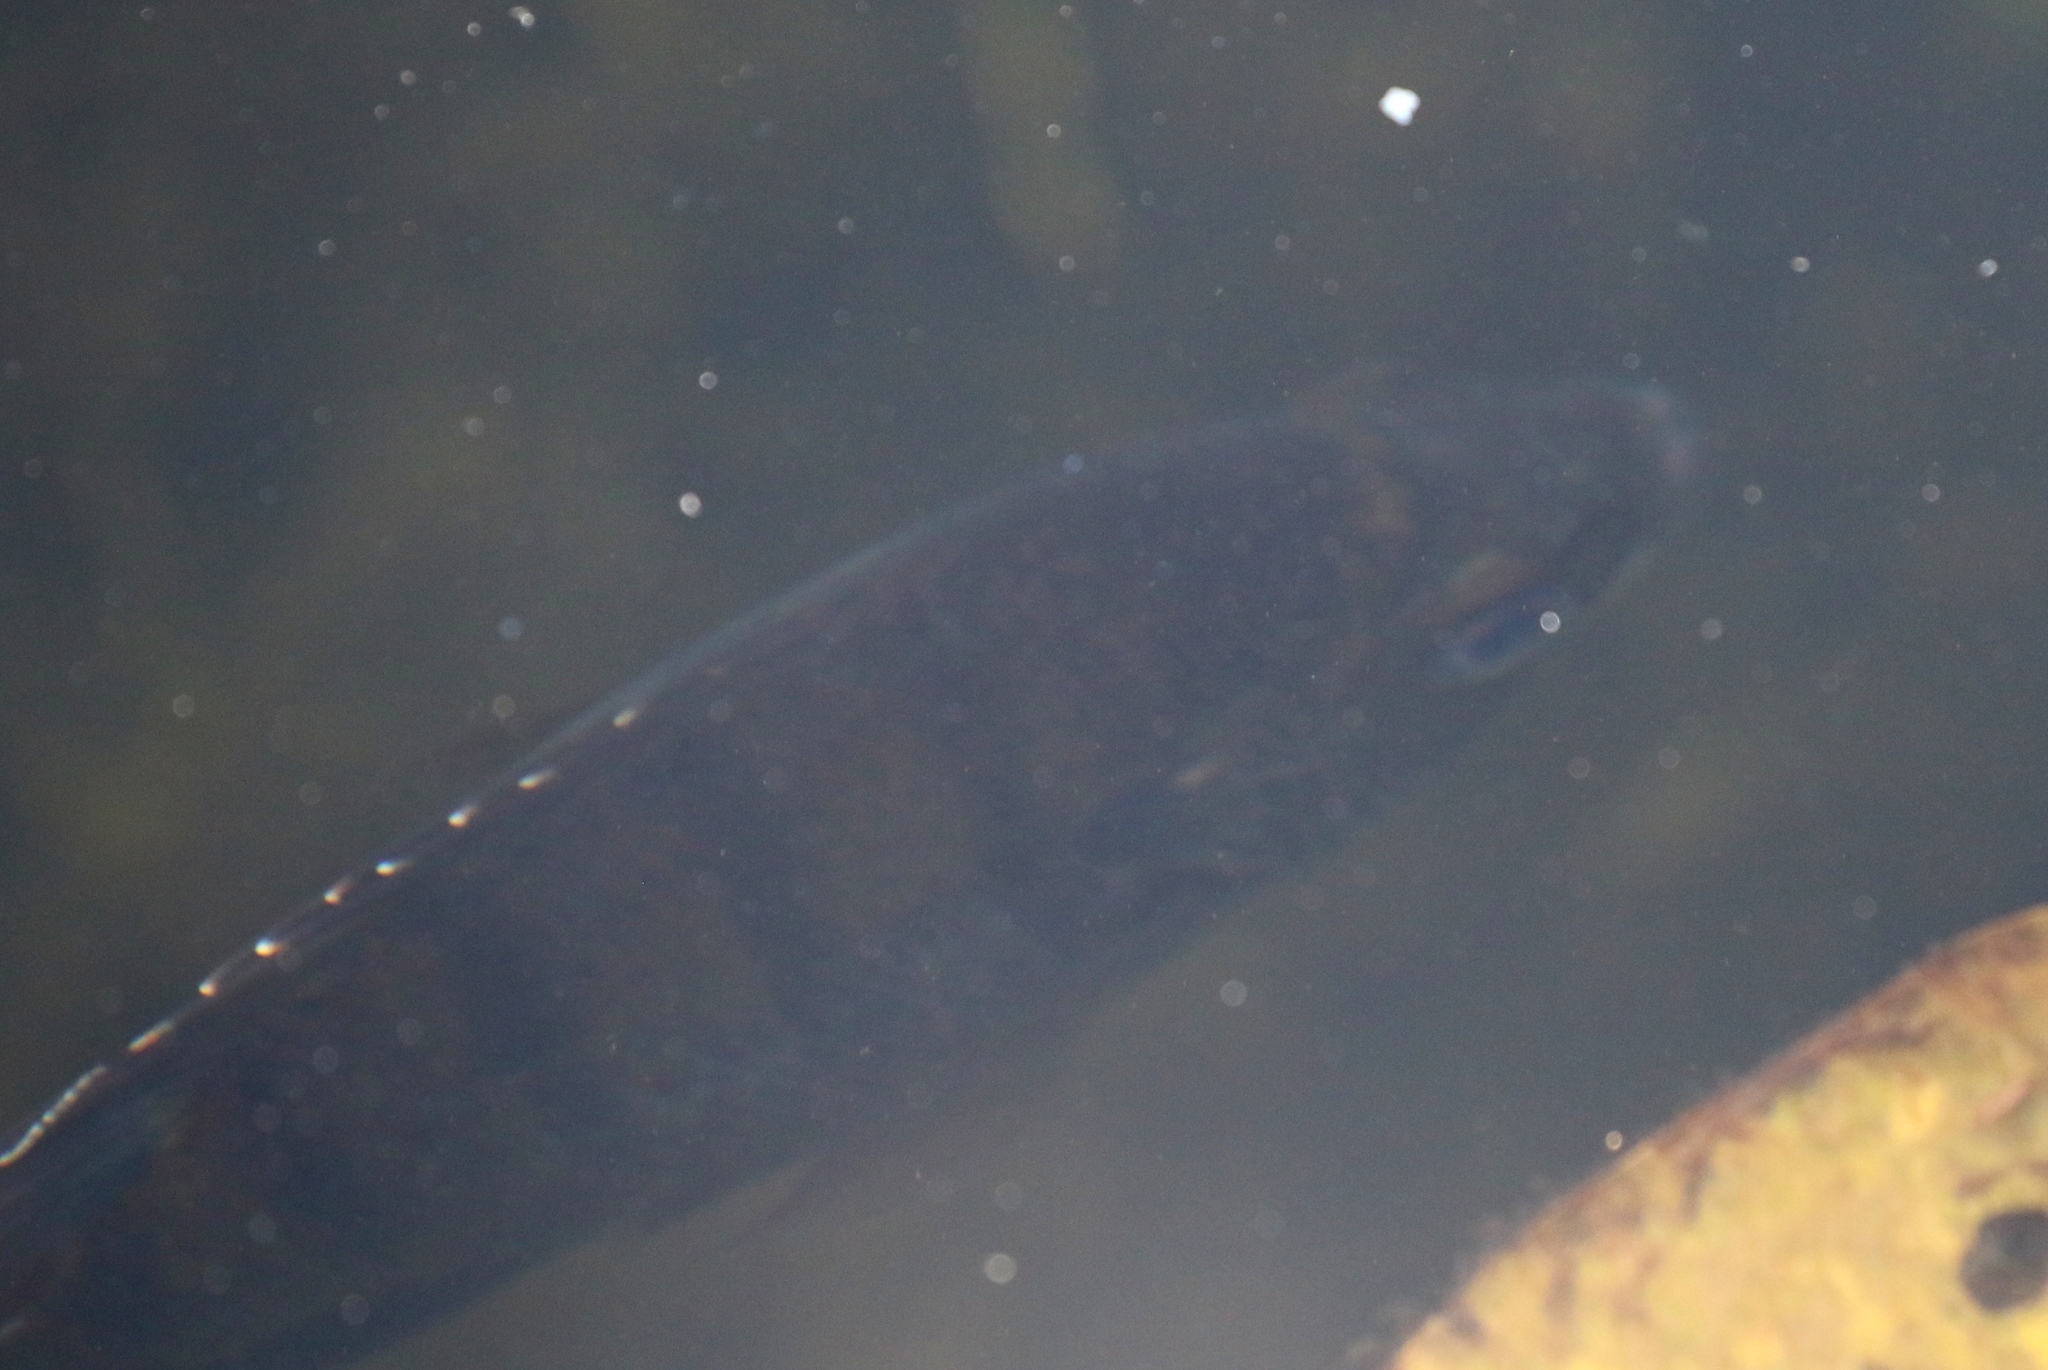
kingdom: Animalia
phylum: Chordata
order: Perciformes
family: Centrarchidae
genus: Lepomis
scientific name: Lepomis macrochirus
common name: Bluegill
